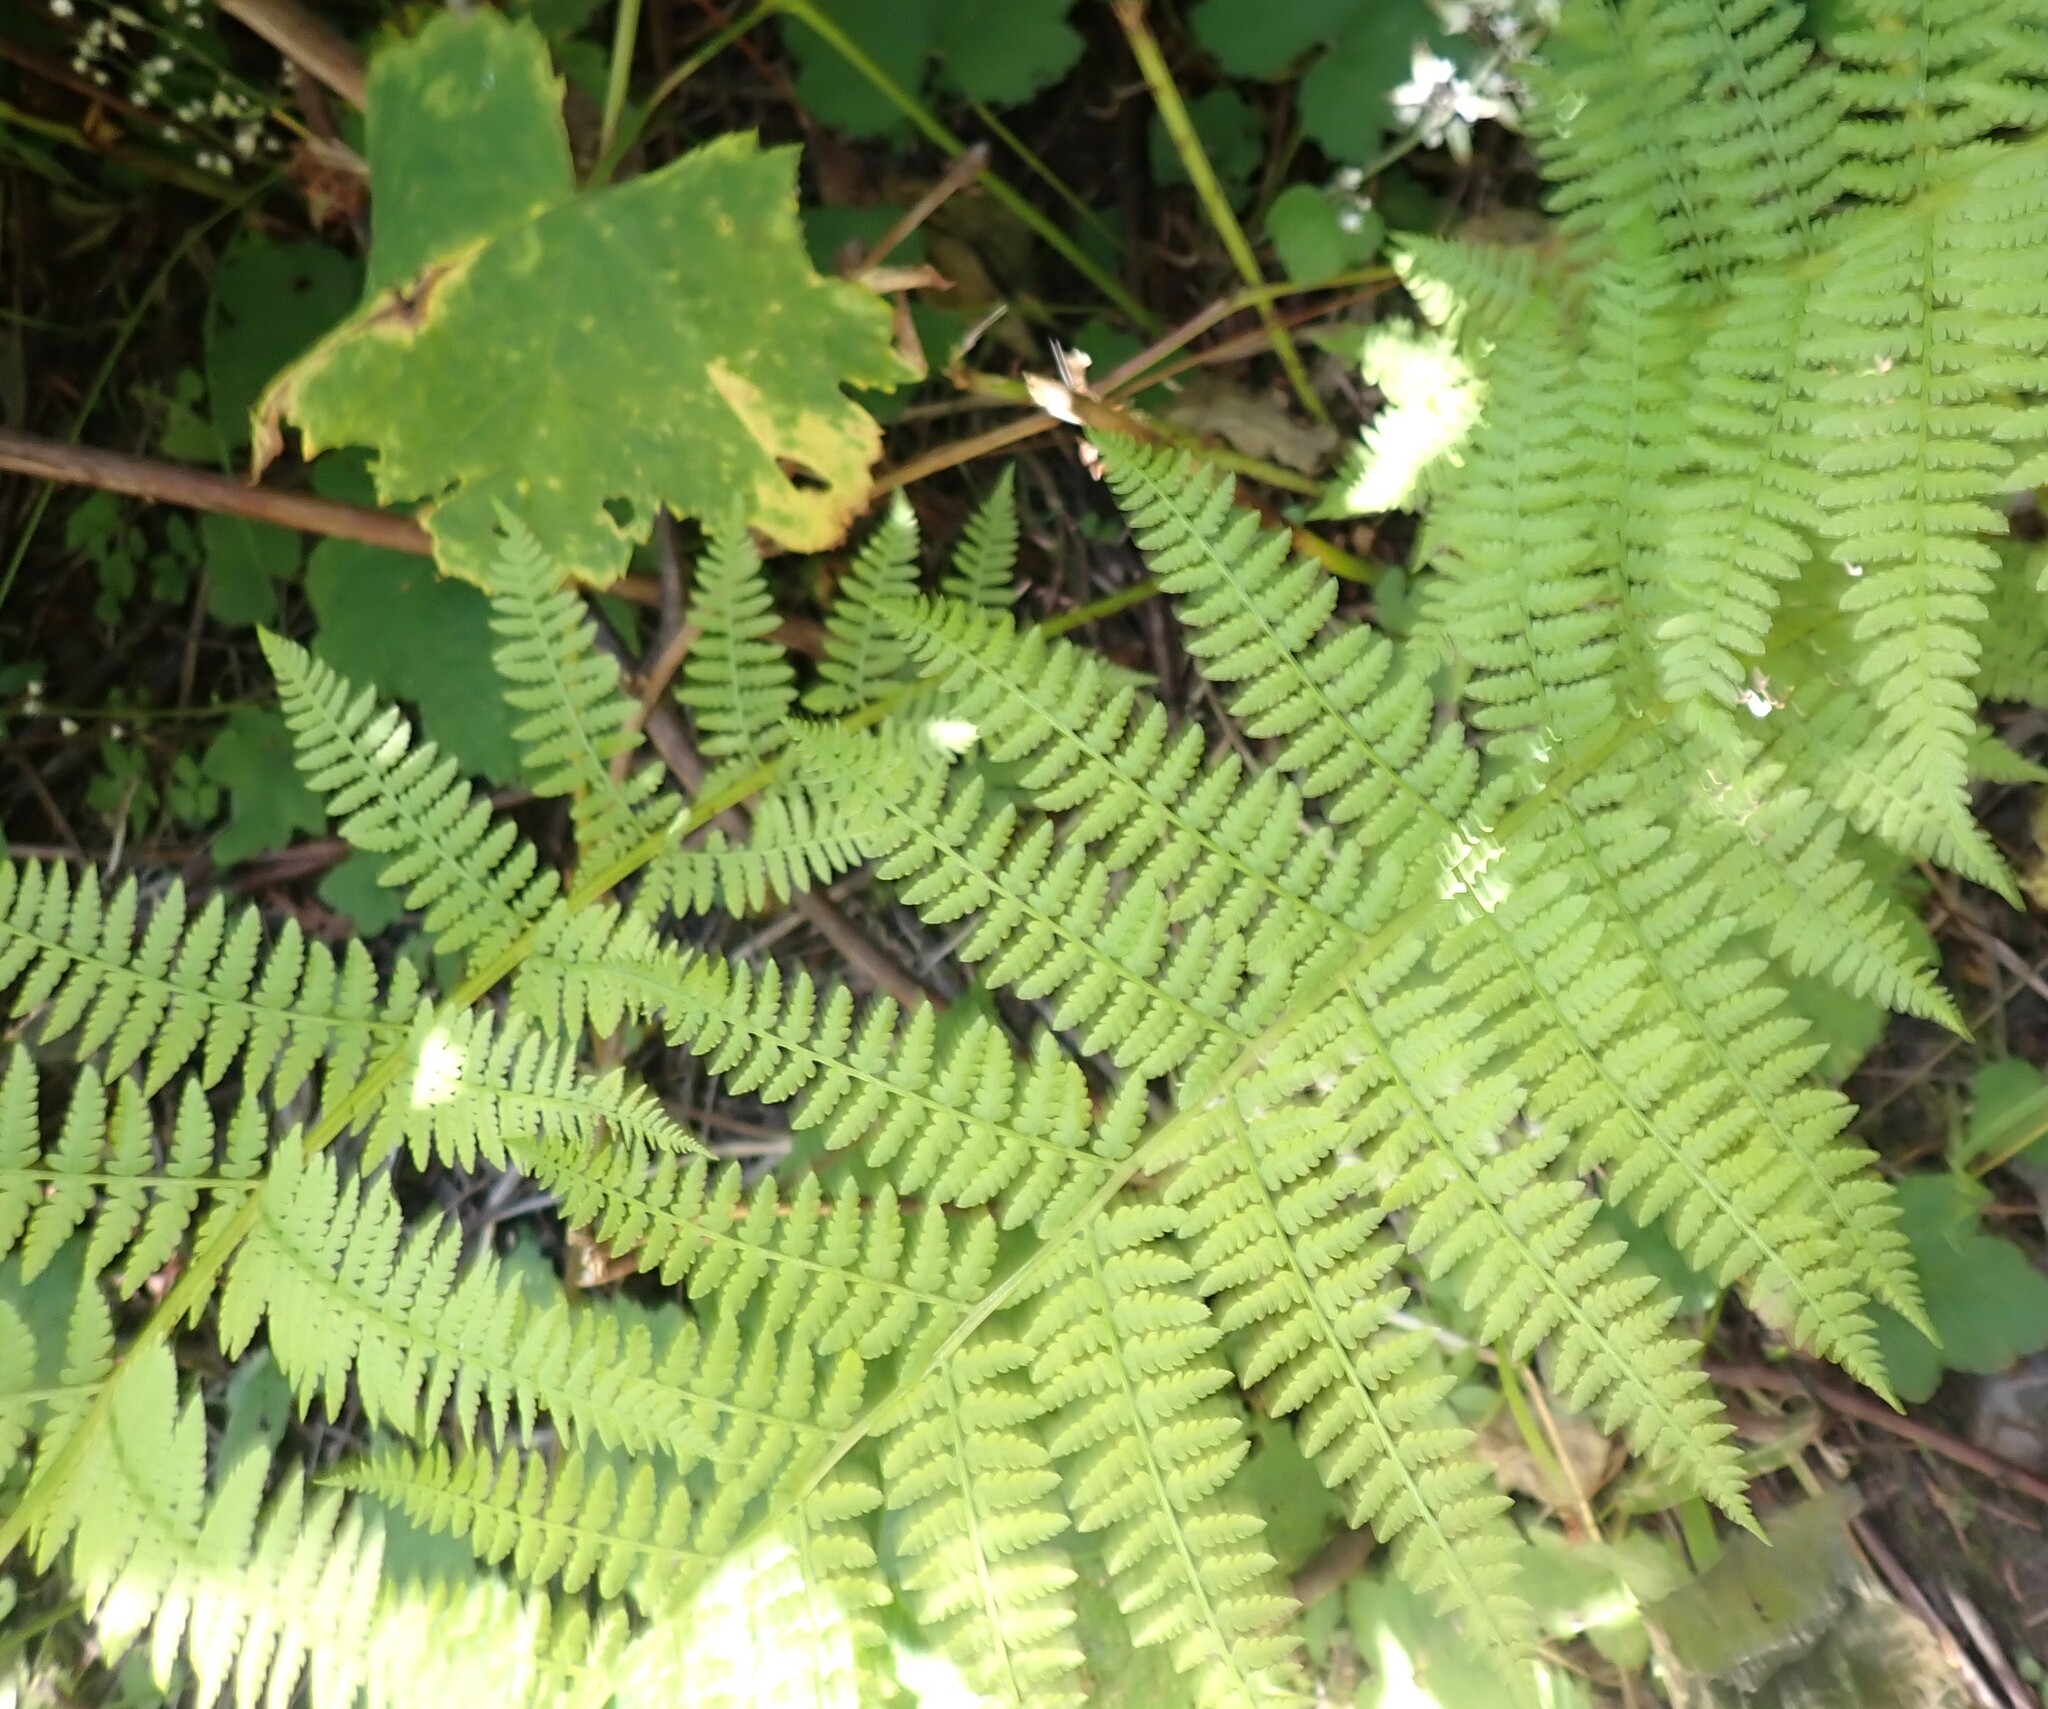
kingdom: Plantae
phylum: Tracheophyta
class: Polypodiopsida
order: Polypodiales
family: Athyriaceae
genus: Athyrium
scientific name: Athyrium filix-femina
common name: Lady fern
